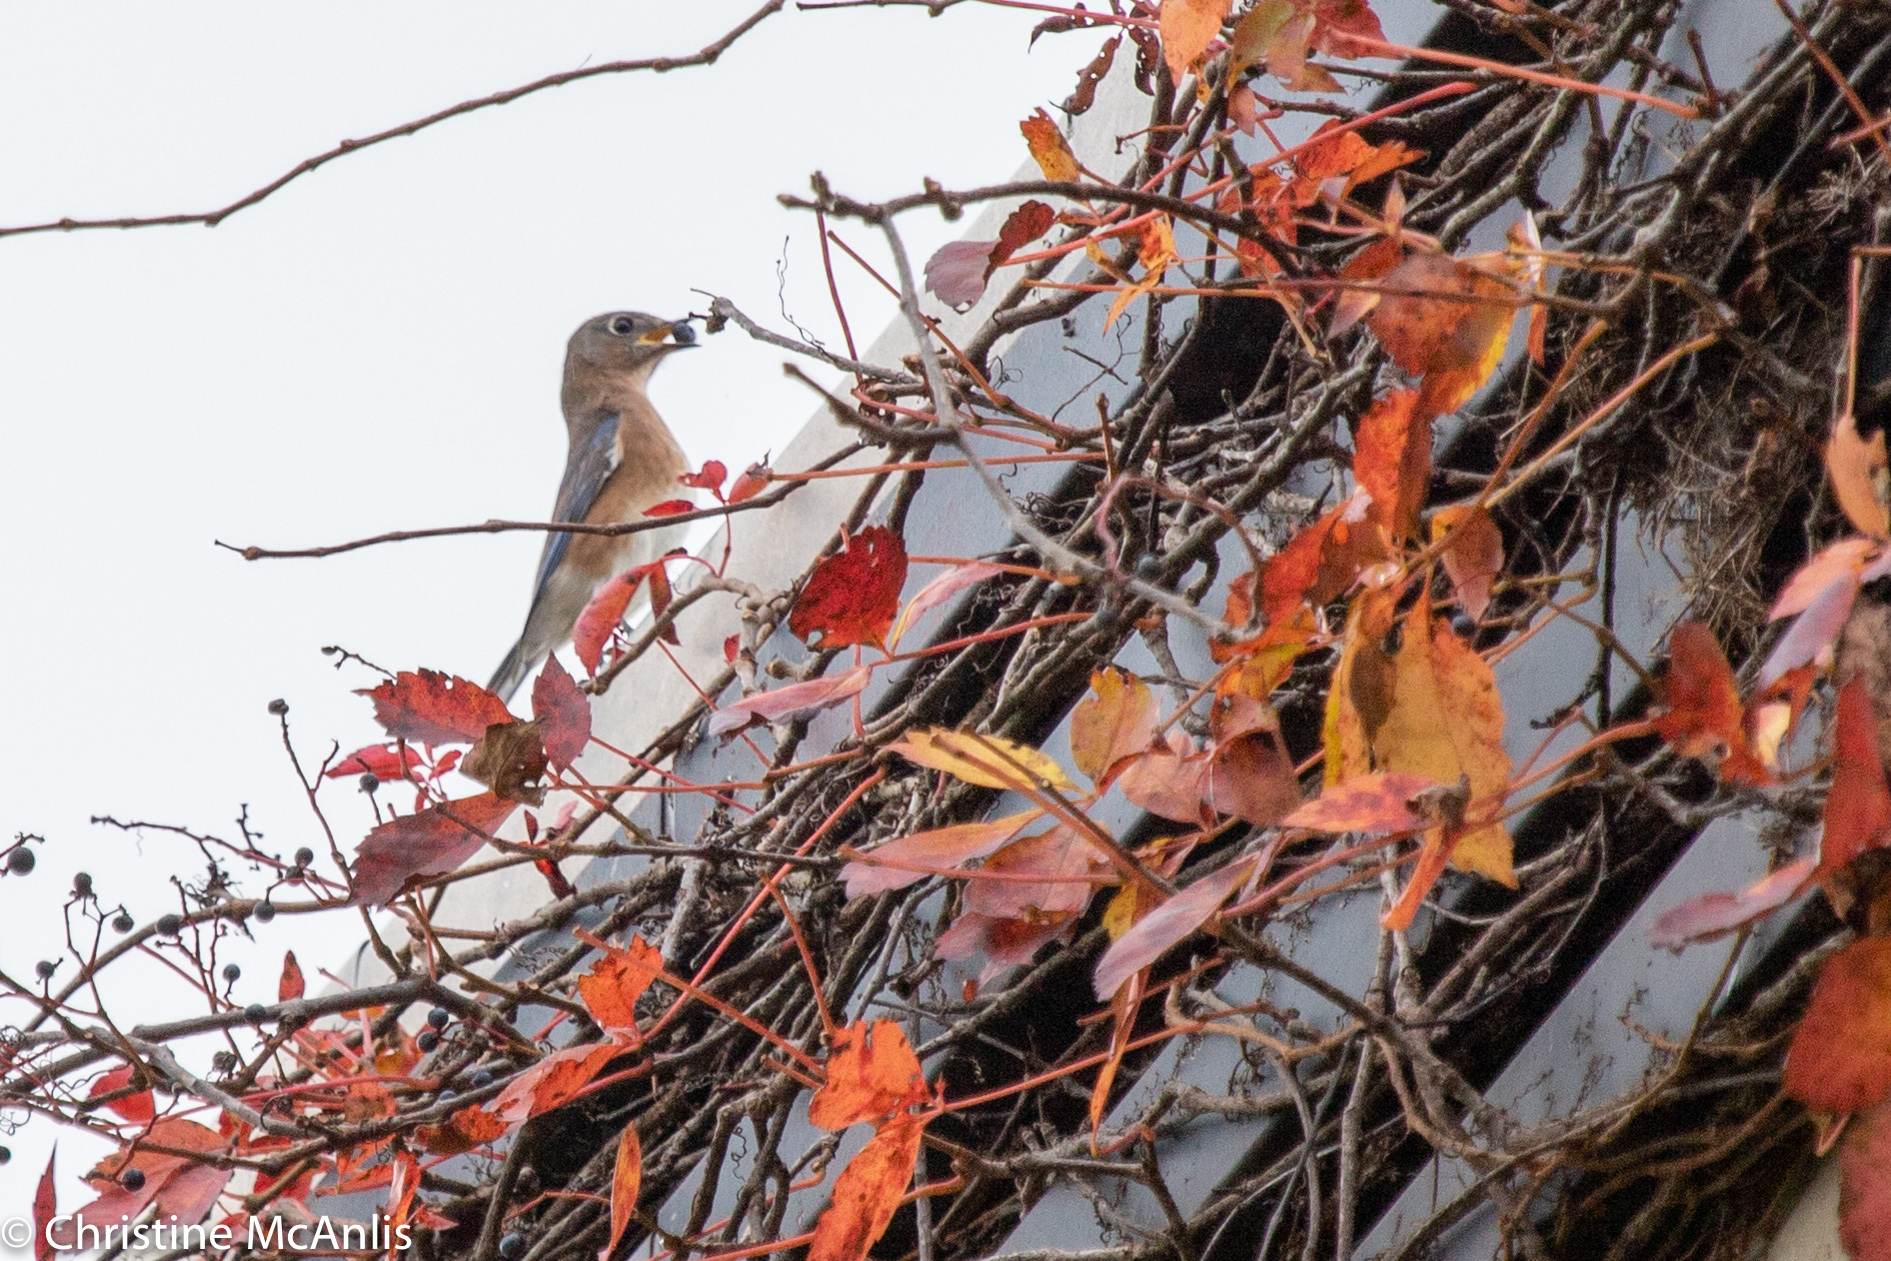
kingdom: Animalia
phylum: Chordata
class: Aves
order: Passeriformes
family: Turdidae
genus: Sialia
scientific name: Sialia sialis
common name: Eastern bluebird
